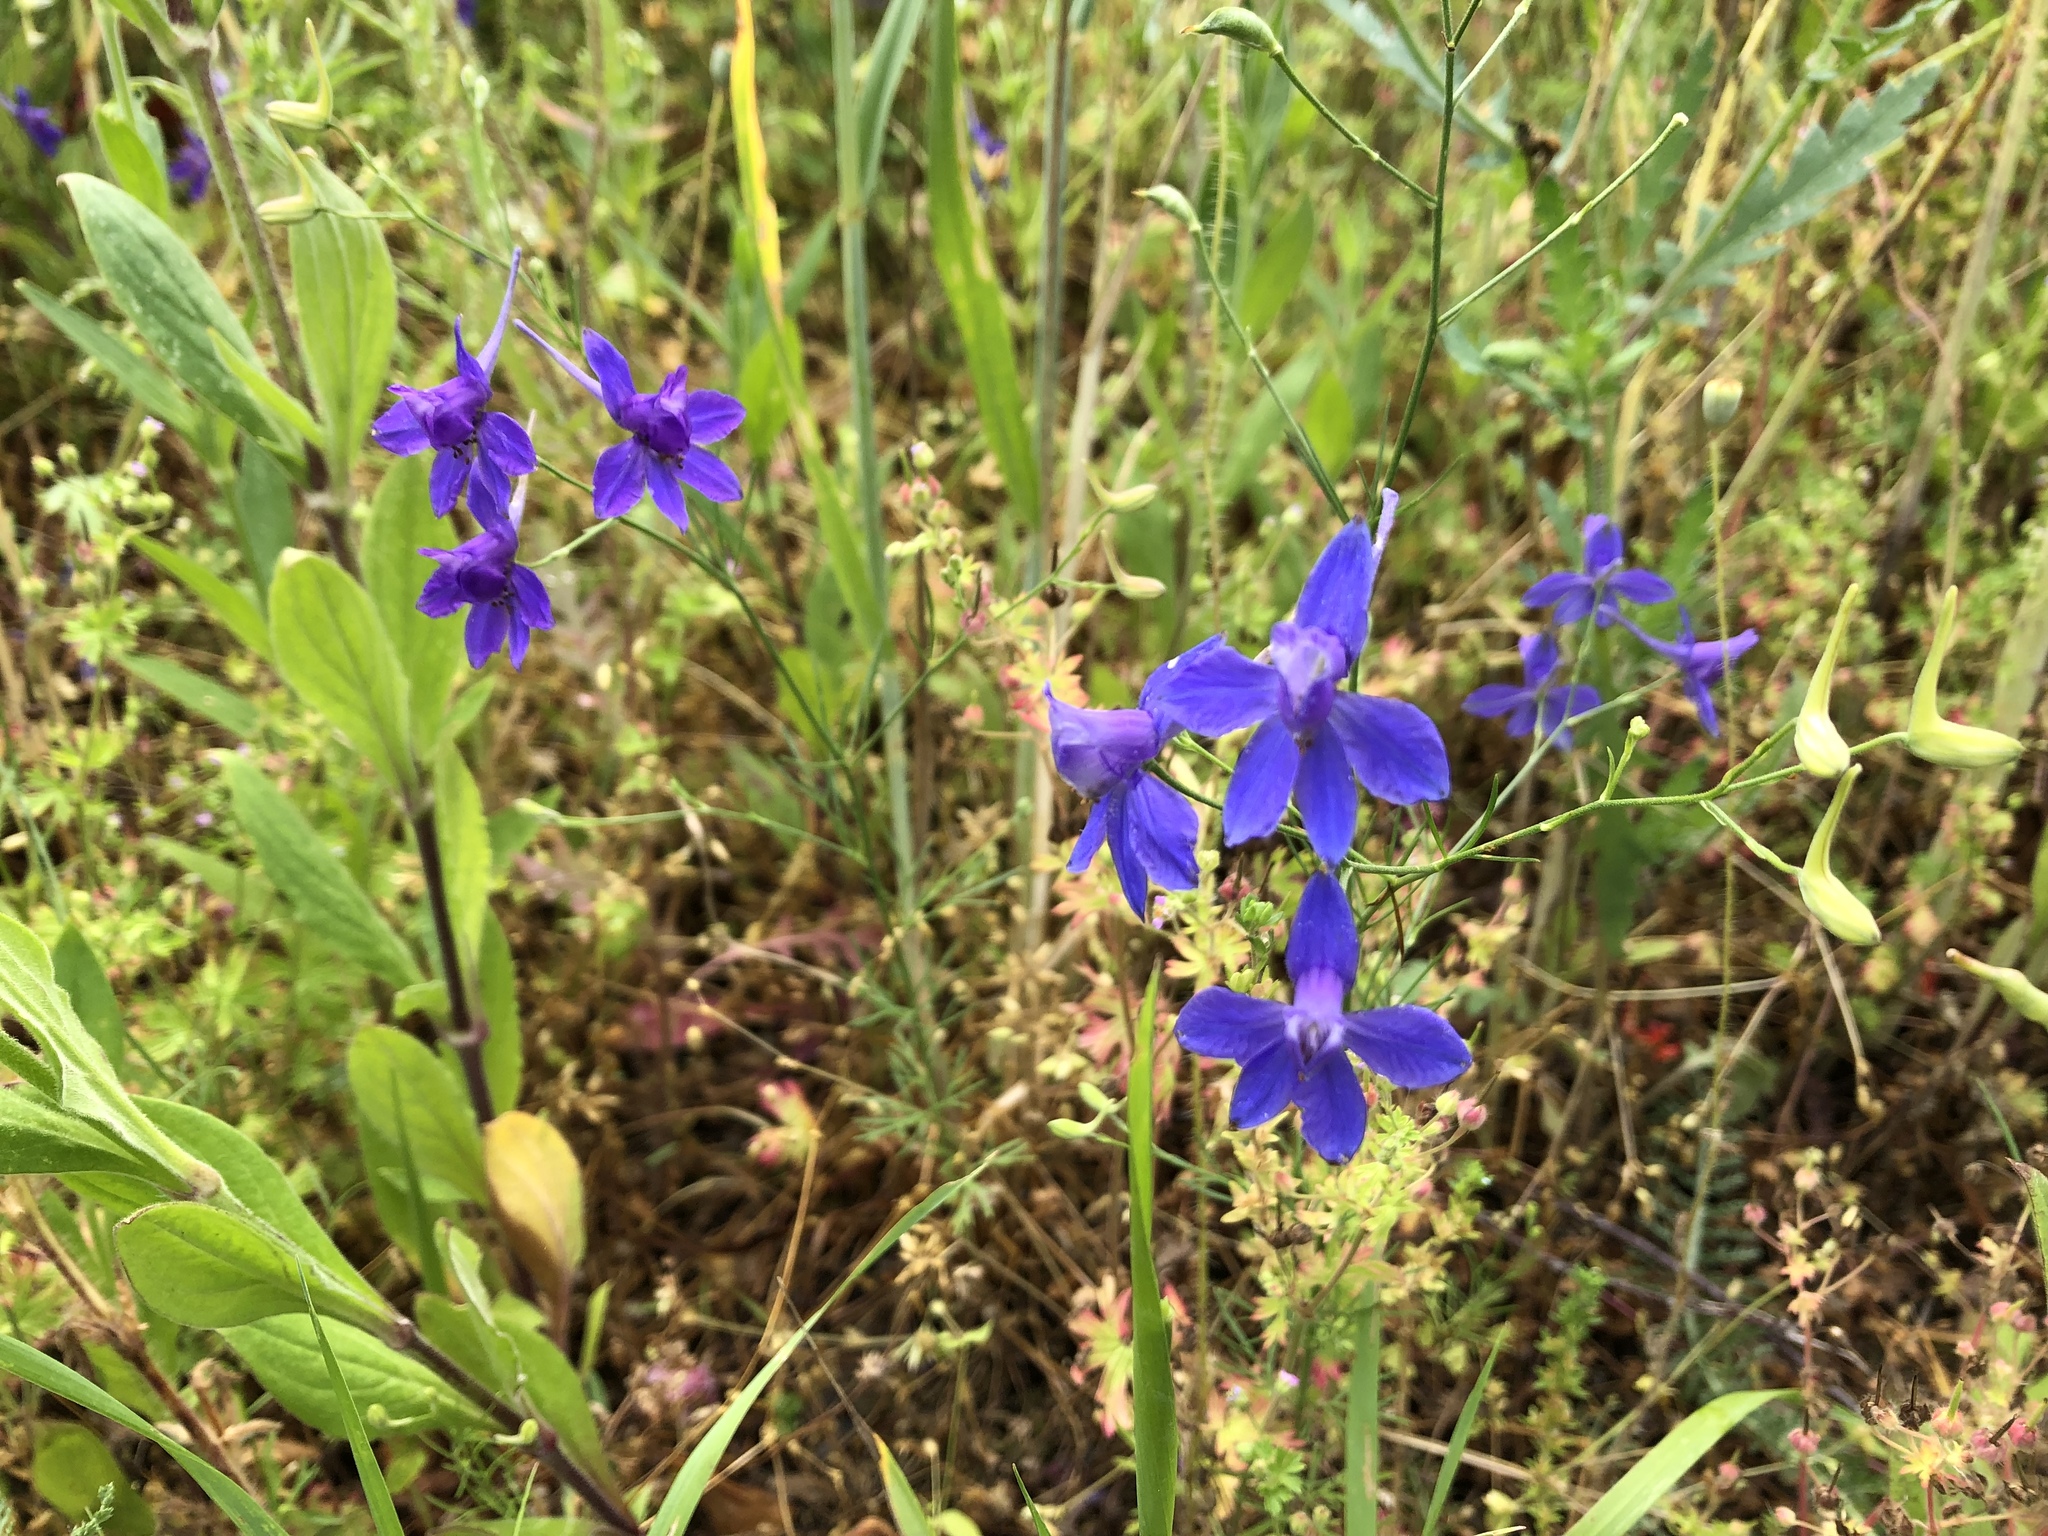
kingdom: Plantae
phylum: Tracheophyta
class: Magnoliopsida
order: Ranunculales
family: Ranunculaceae
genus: Delphinium
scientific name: Delphinium consolida
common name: Branching larkspur
